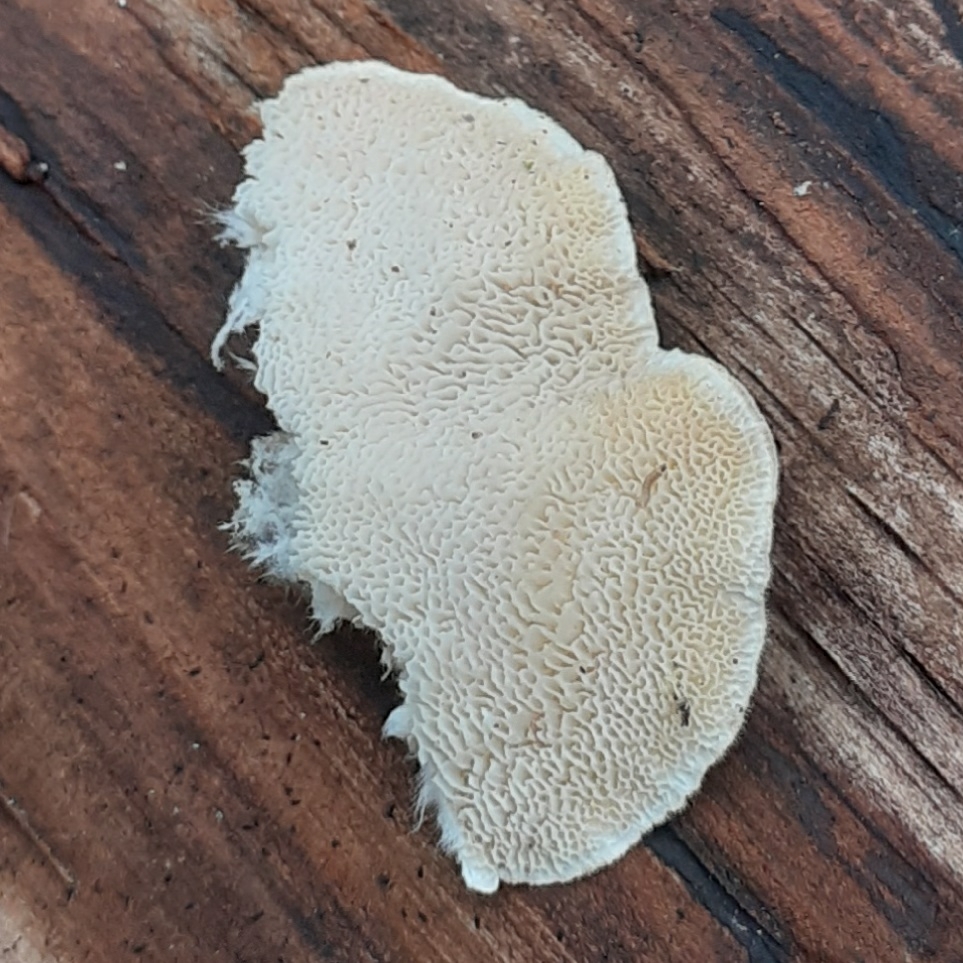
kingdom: Fungi
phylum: Basidiomycota
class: Agaricomycetes
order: Polyporales
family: Polyporaceae
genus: Trametes
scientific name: Trametes versicolor
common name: Turkeytail
